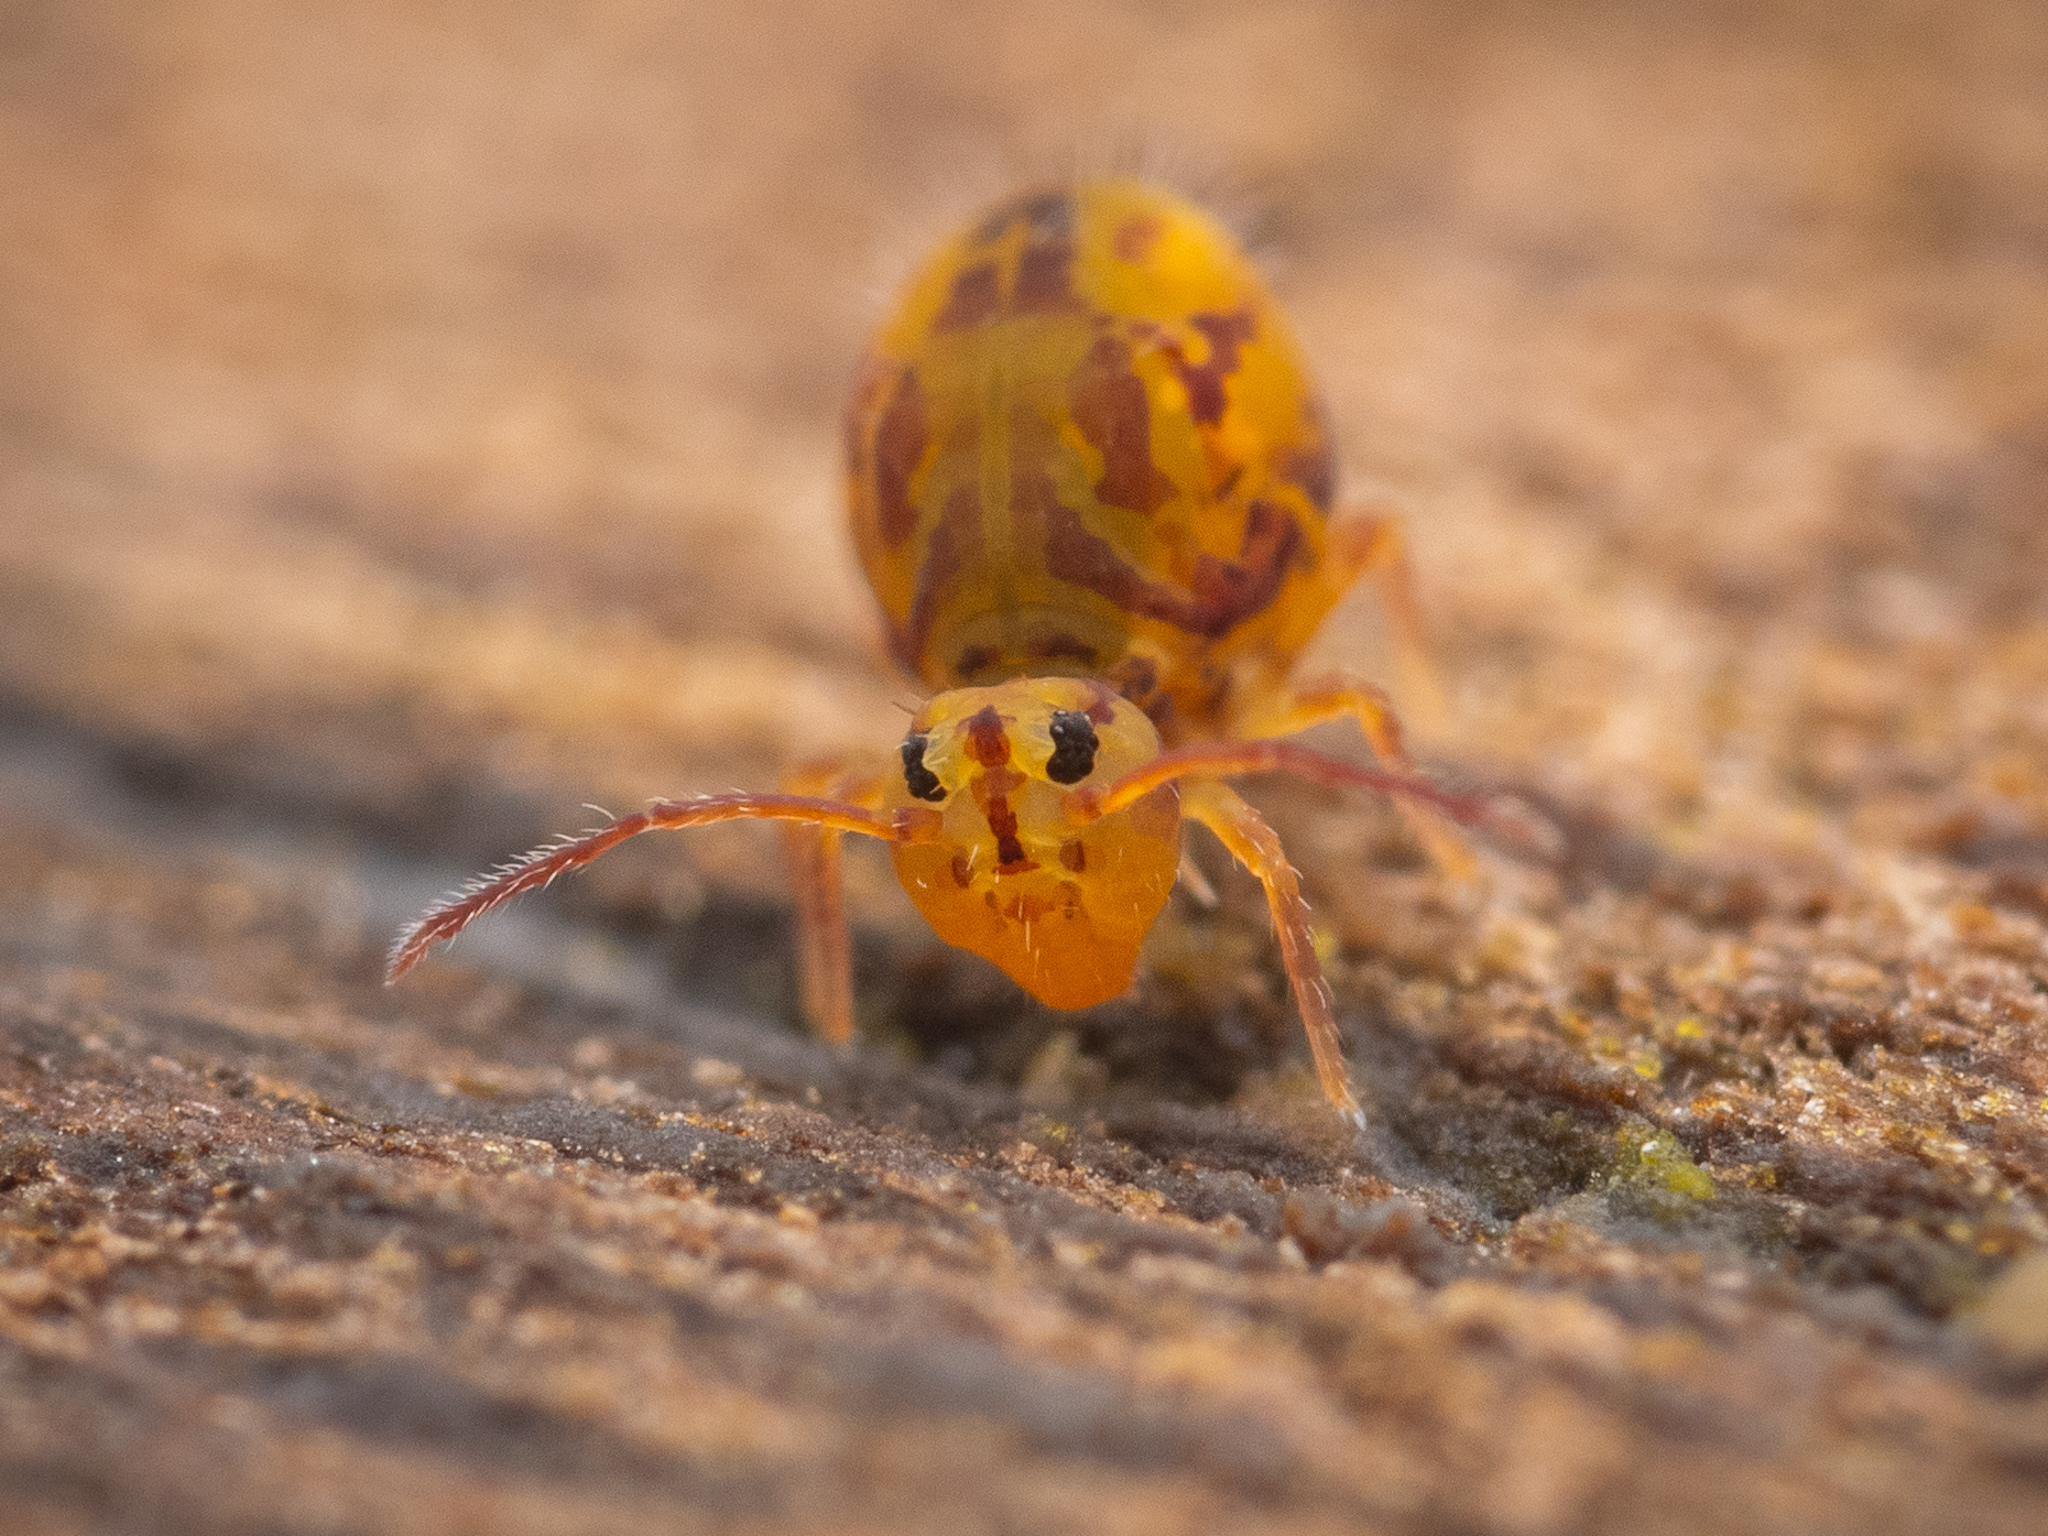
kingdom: Animalia
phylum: Arthropoda
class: Collembola
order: Symphypleona
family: Dicyrtomidae
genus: Dicyrtomina
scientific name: Dicyrtomina ornata
